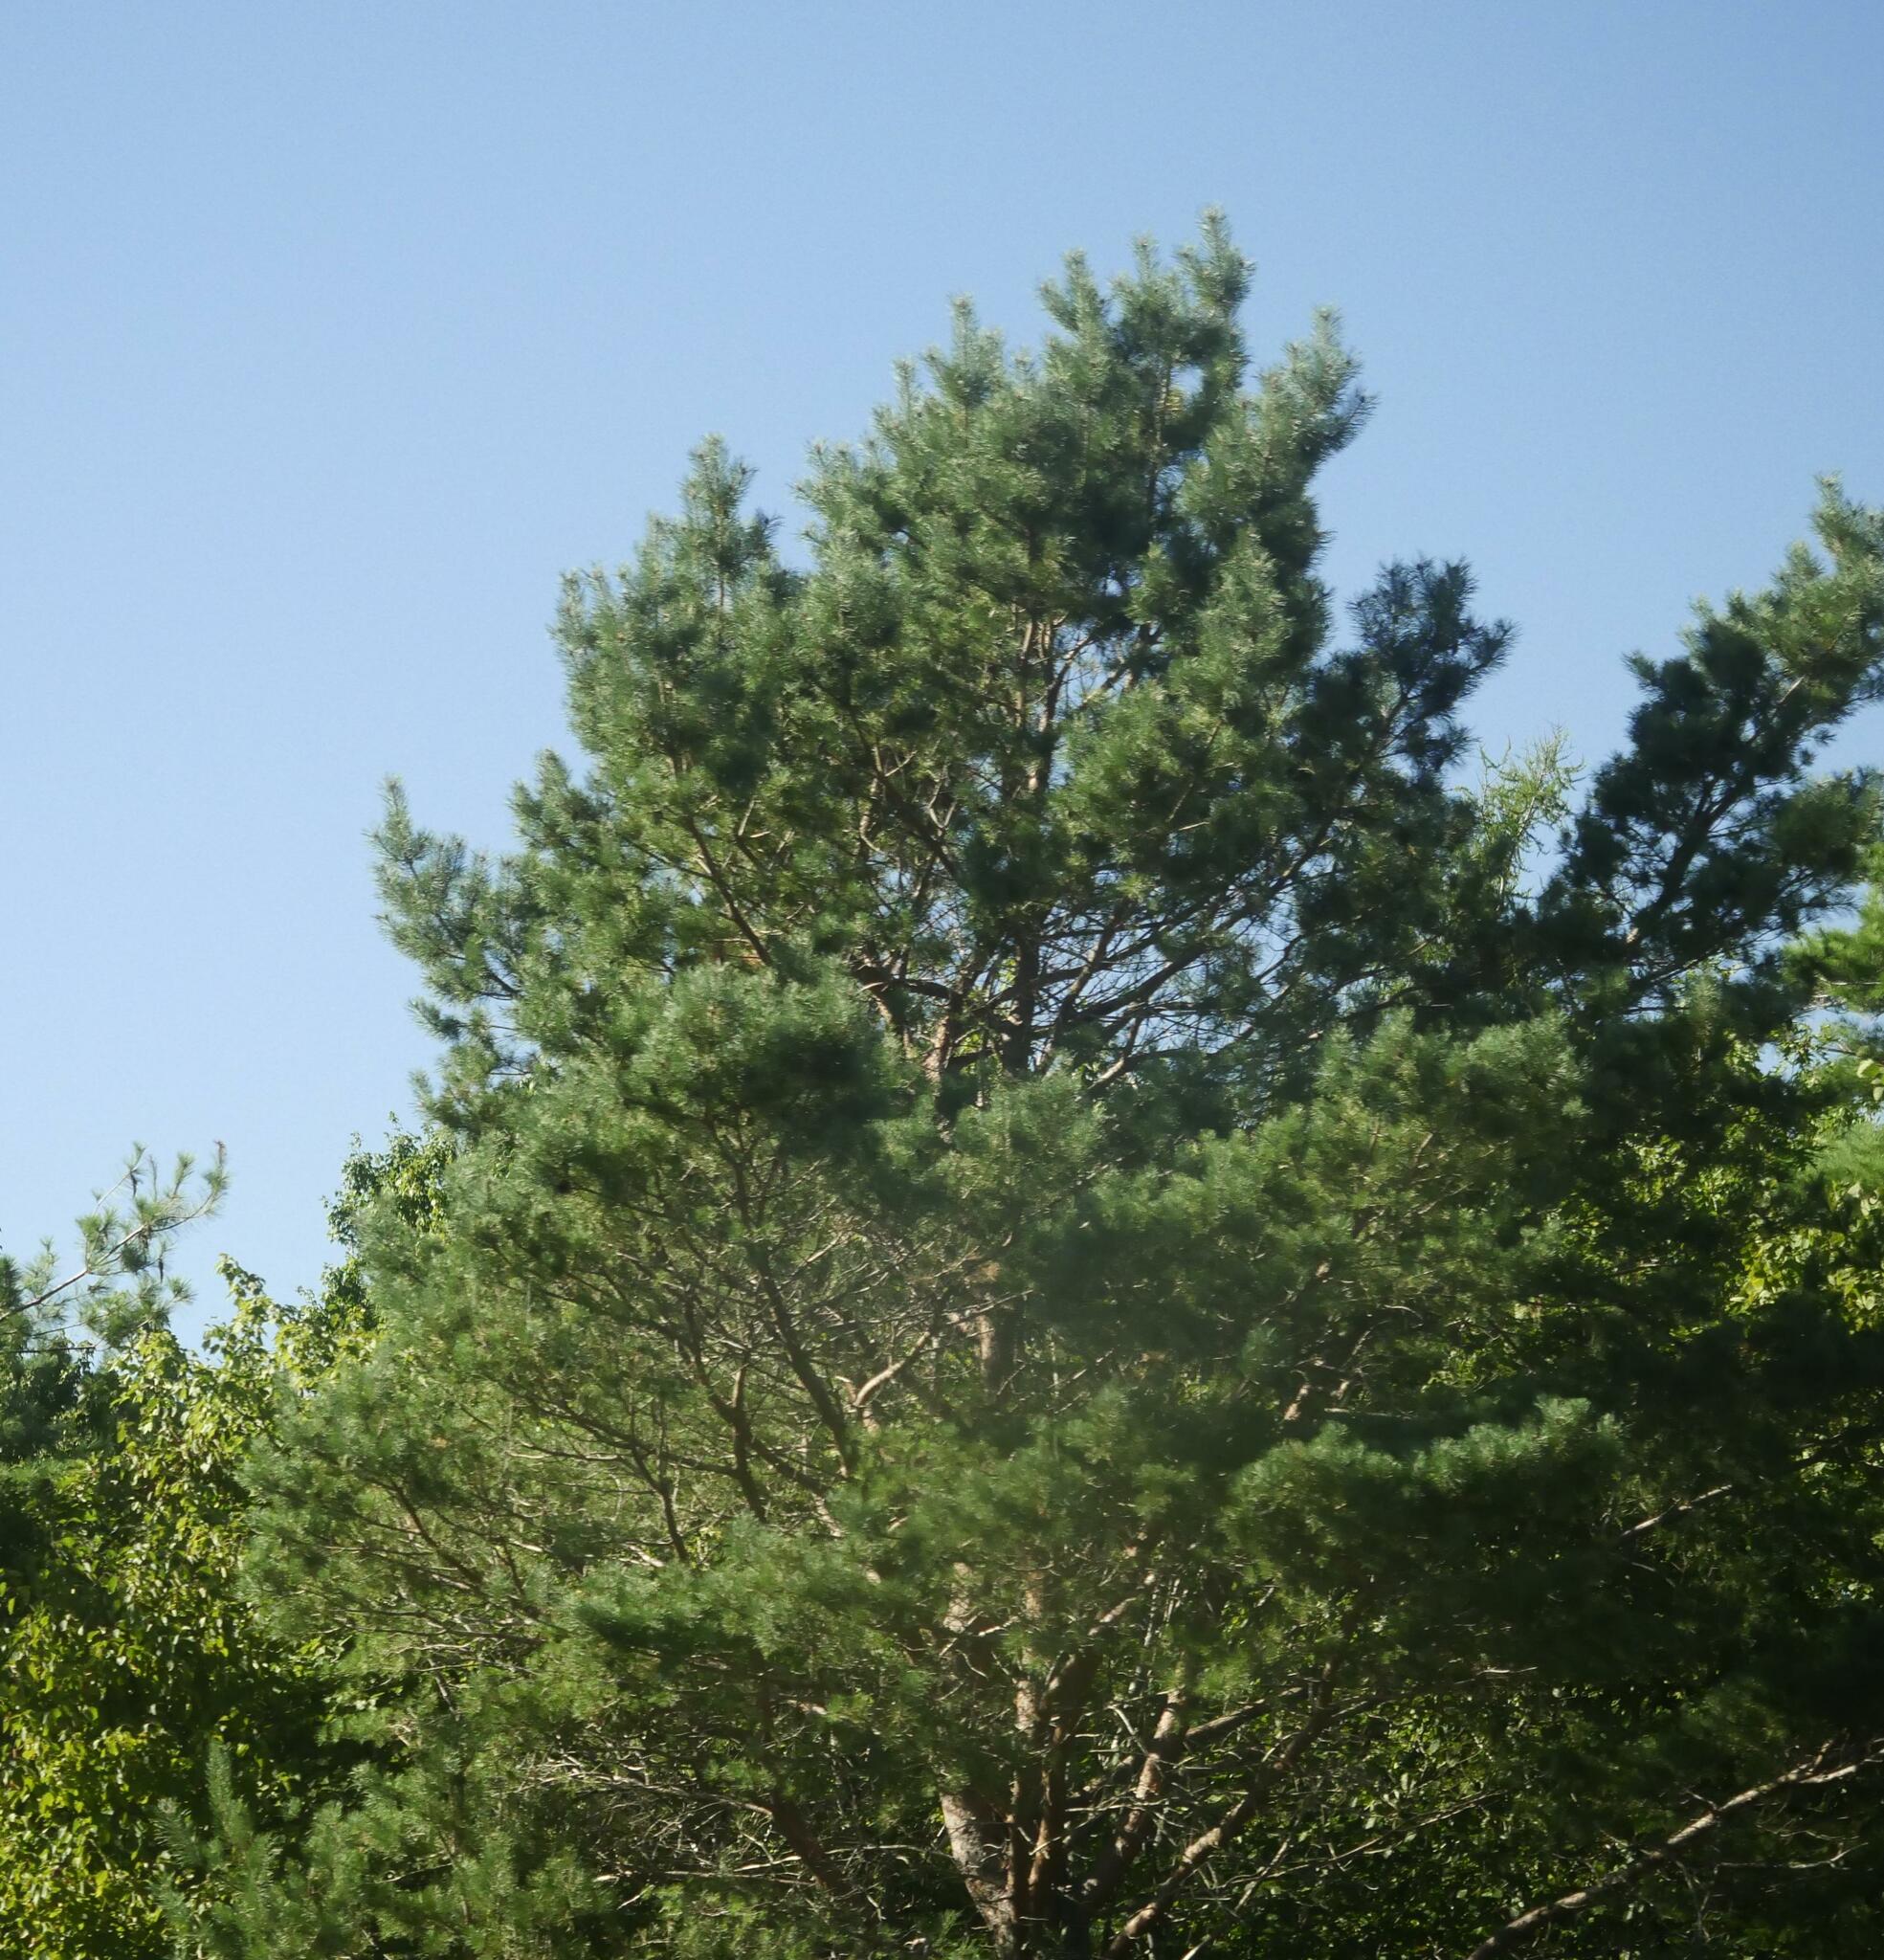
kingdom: Plantae
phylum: Tracheophyta
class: Pinopsida
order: Pinales
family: Pinaceae
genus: Pinus
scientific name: Pinus strobus
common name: Weymouth pine
